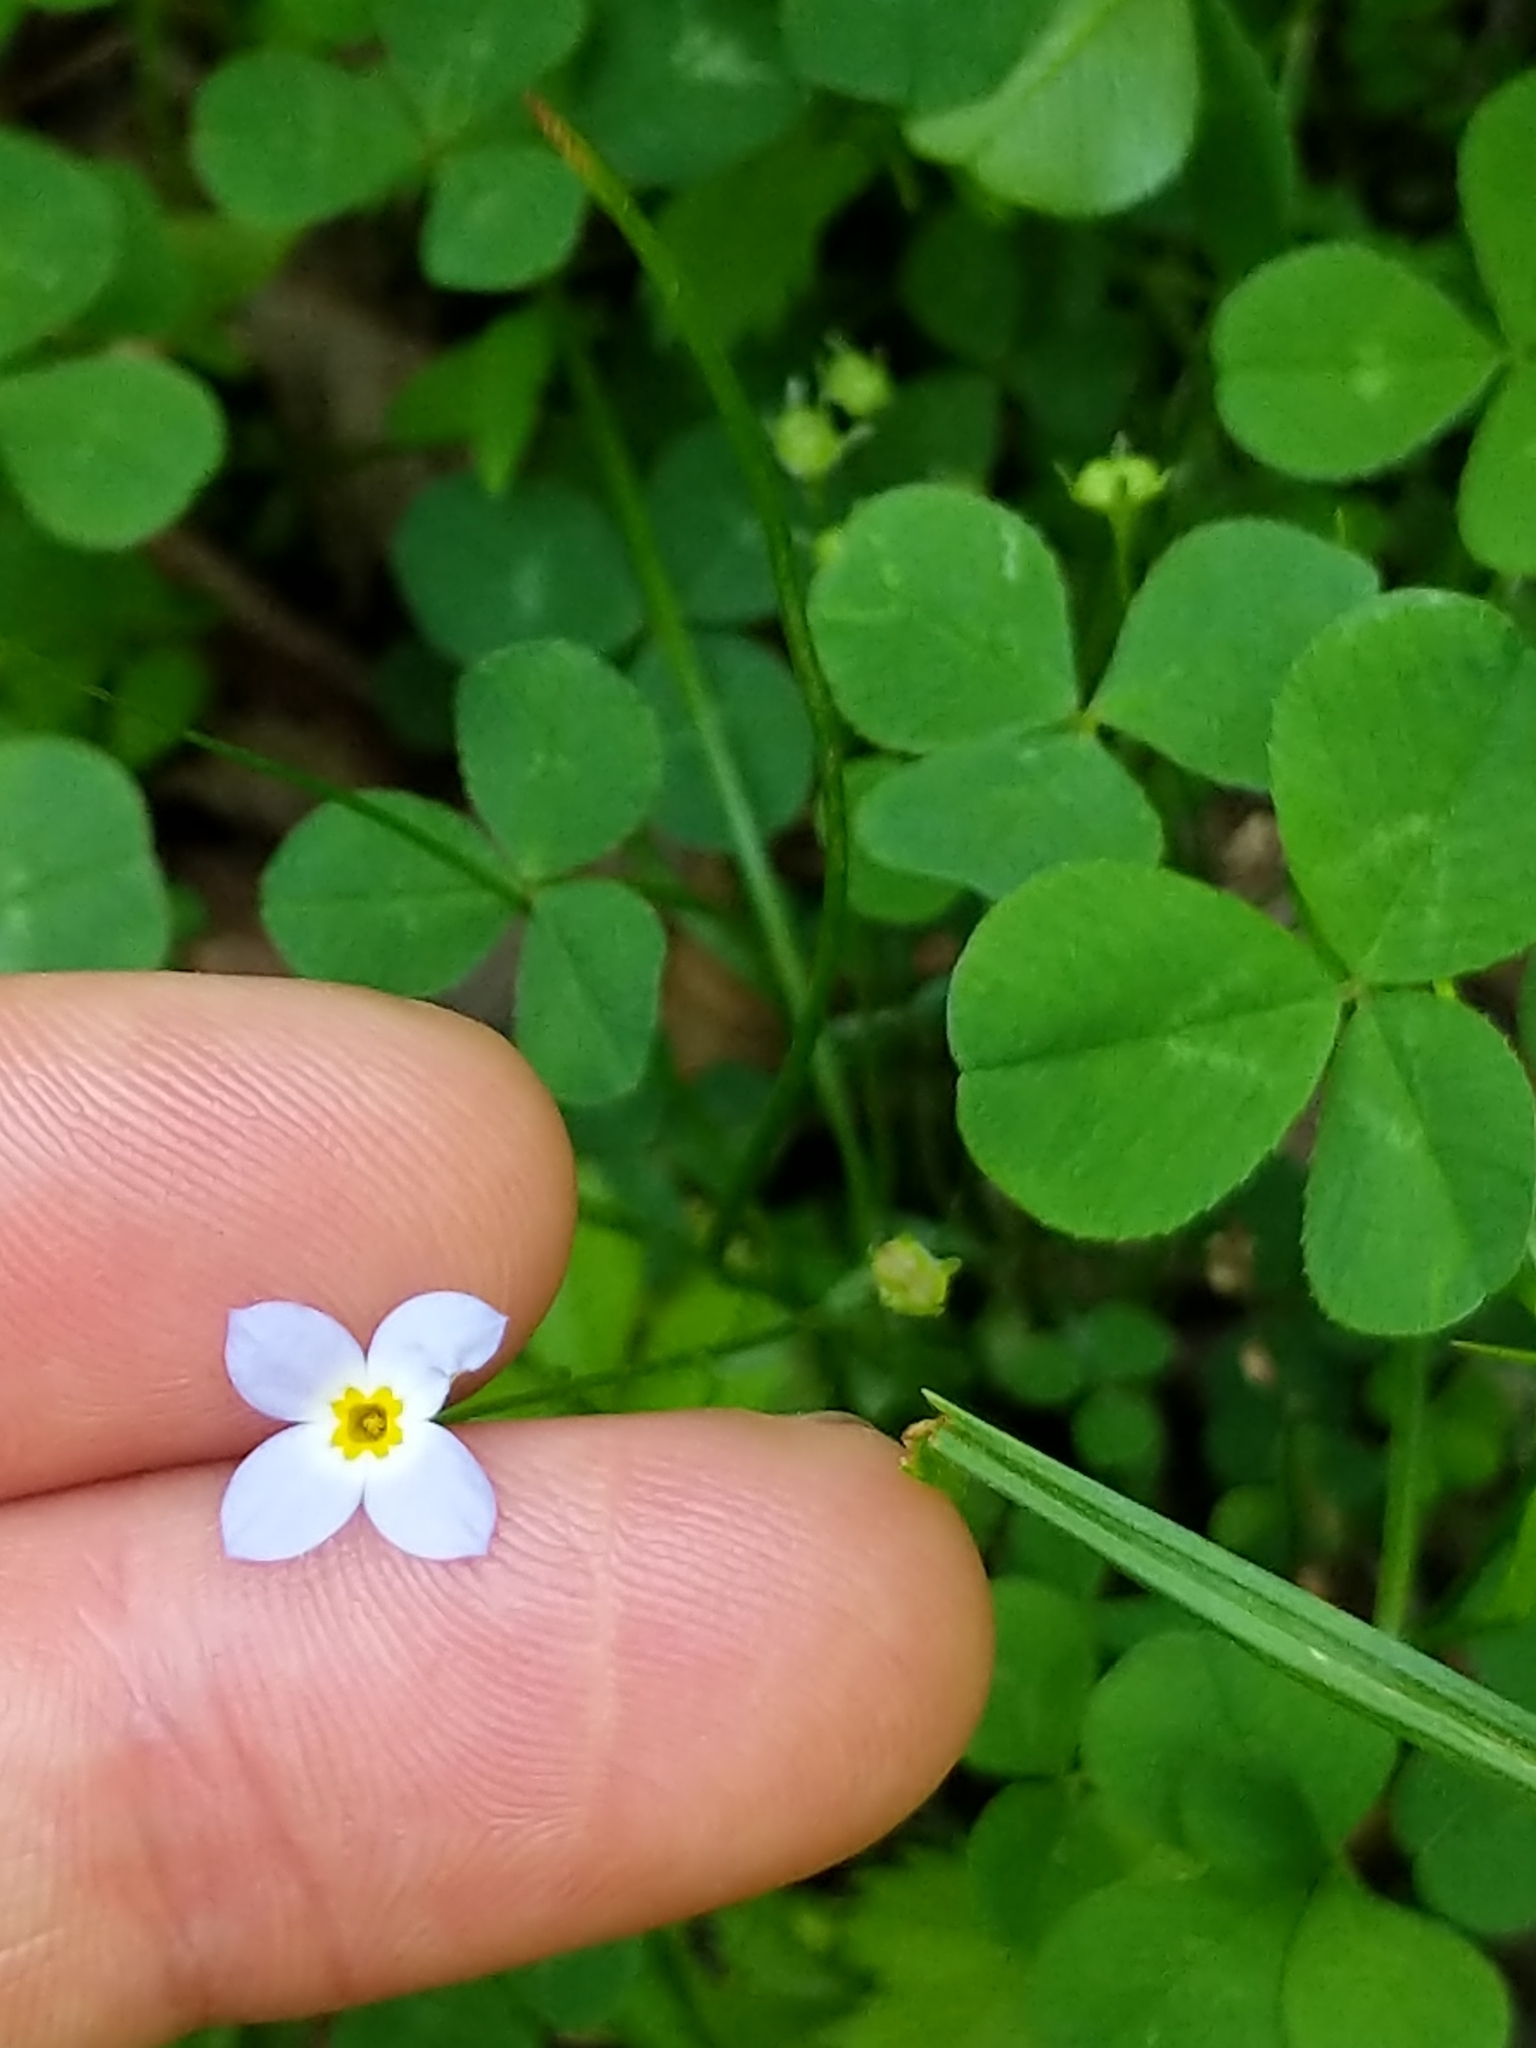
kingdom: Plantae
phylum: Tracheophyta
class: Magnoliopsida
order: Gentianales
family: Rubiaceae
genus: Houstonia
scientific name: Houstonia caerulea
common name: Bluets
